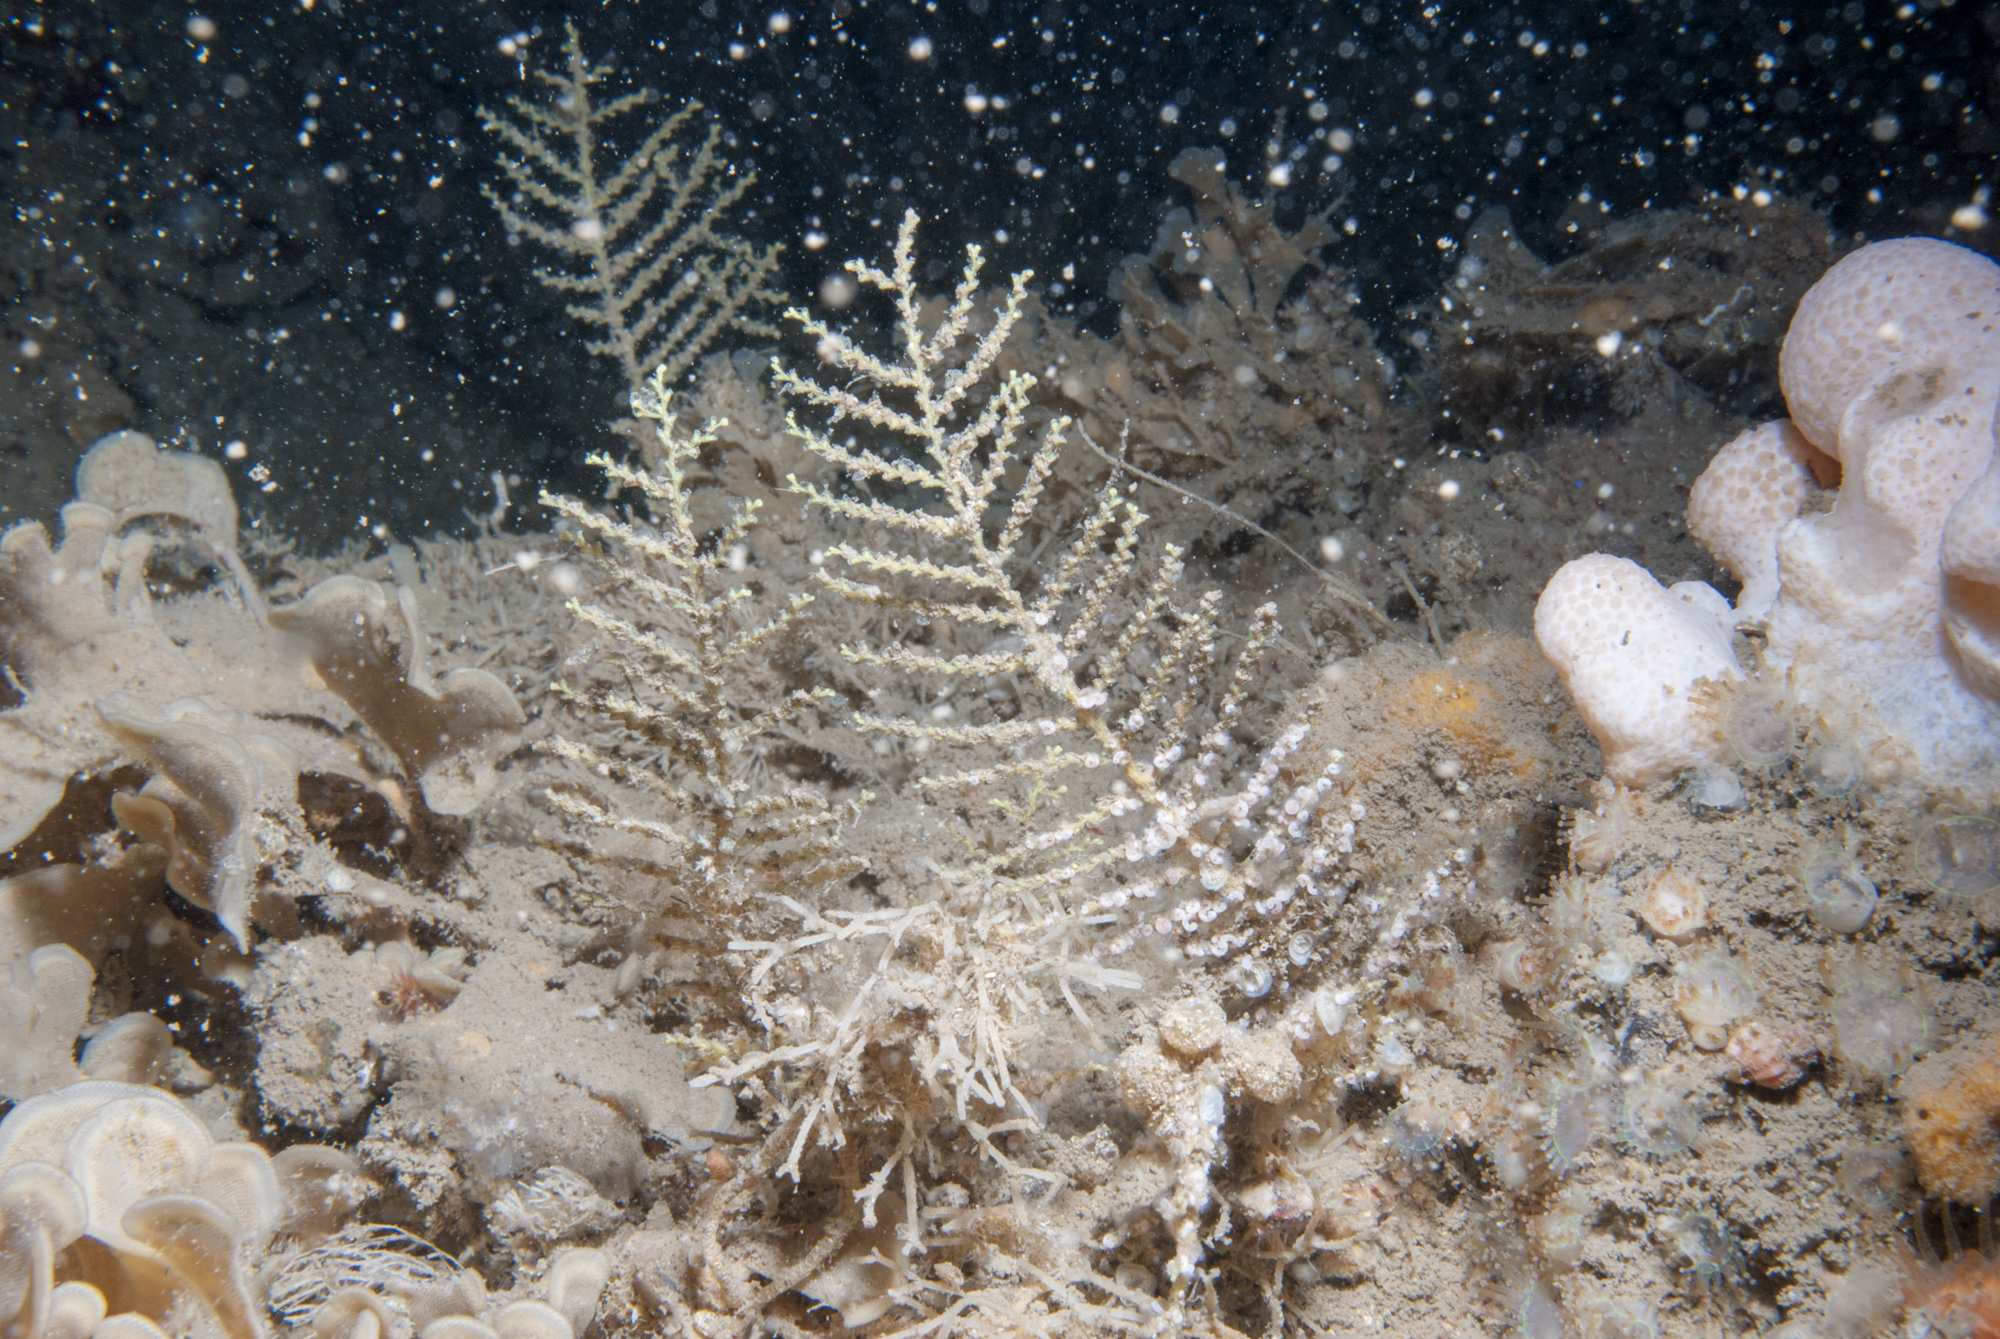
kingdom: Animalia
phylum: Cnidaria
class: Hydrozoa
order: Leptothecata
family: Sertularellidae
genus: Sertularella
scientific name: Sertularella gayi
